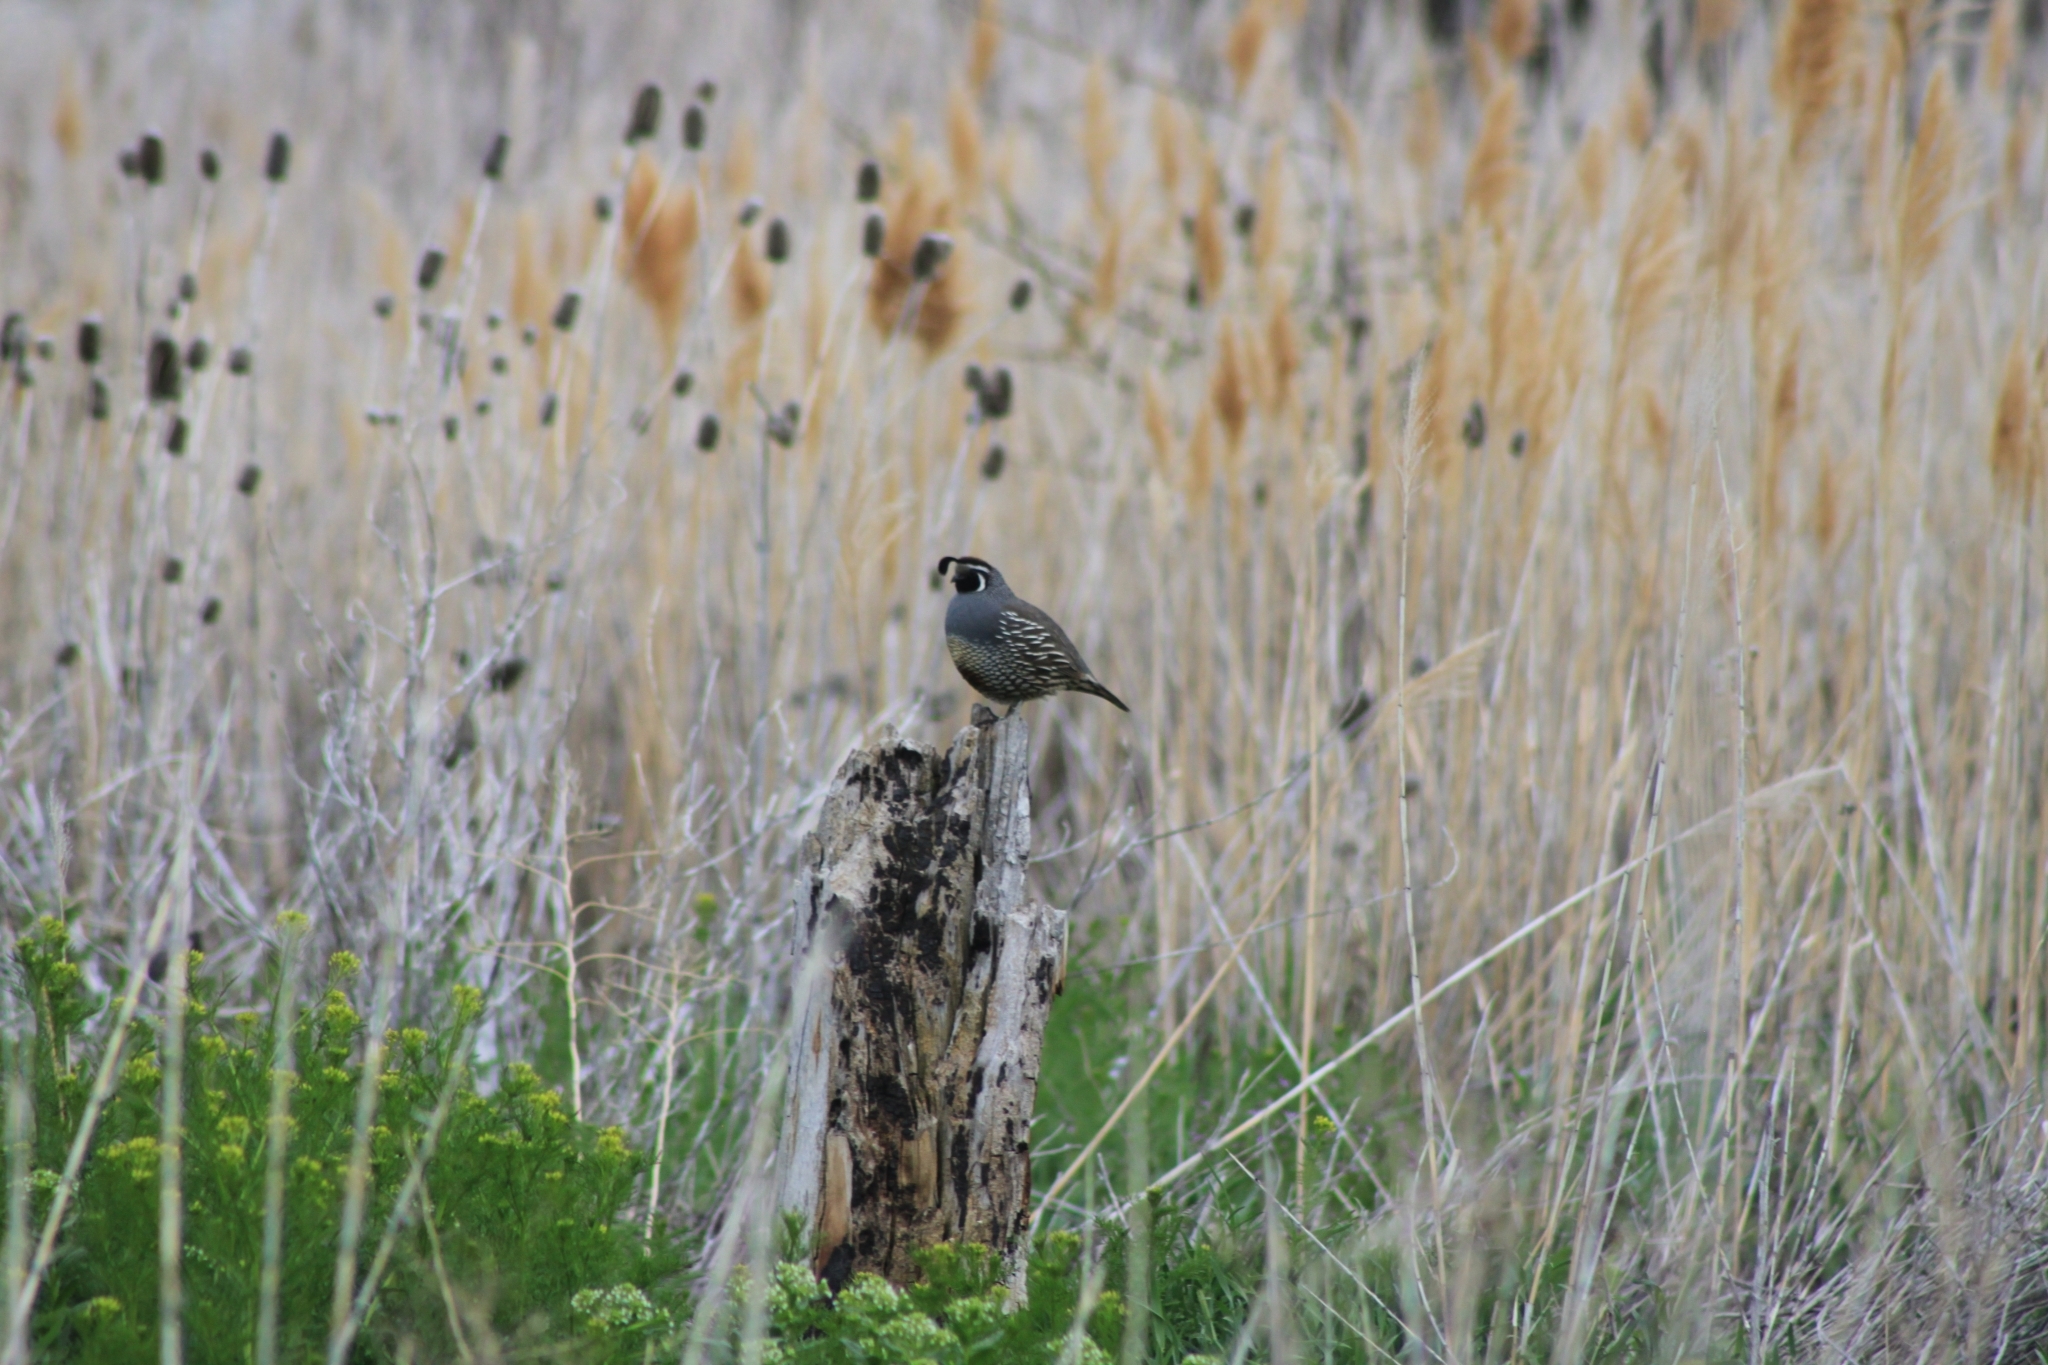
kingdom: Animalia
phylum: Chordata
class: Aves
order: Galliformes
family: Odontophoridae
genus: Callipepla
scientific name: Callipepla californica
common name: California quail
